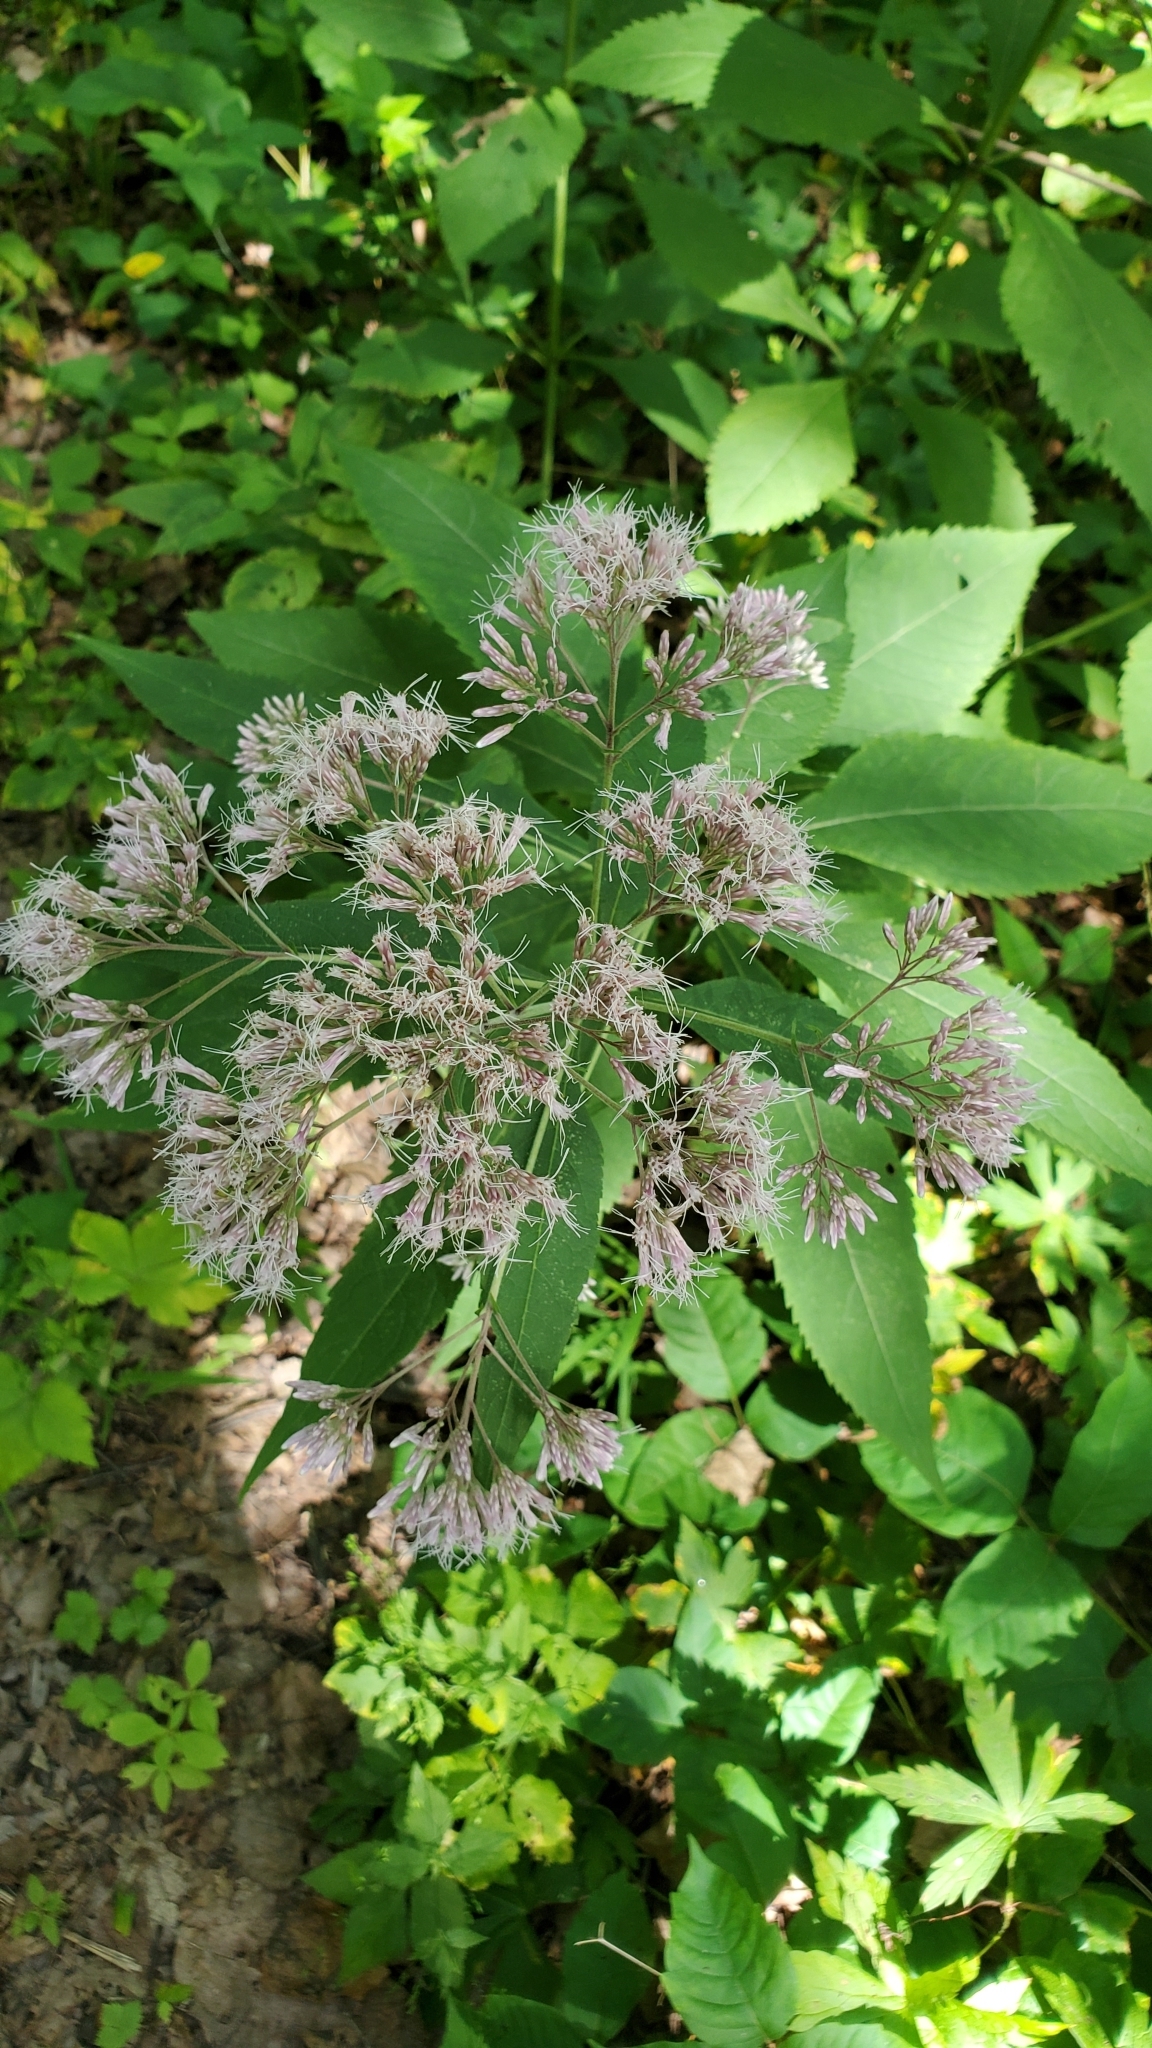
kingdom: Plantae
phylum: Tracheophyta
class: Magnoliopsida
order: Asterales
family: Asteraceae
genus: Eutrochium
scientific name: Eutrochium purpureum
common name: Gravelroot
